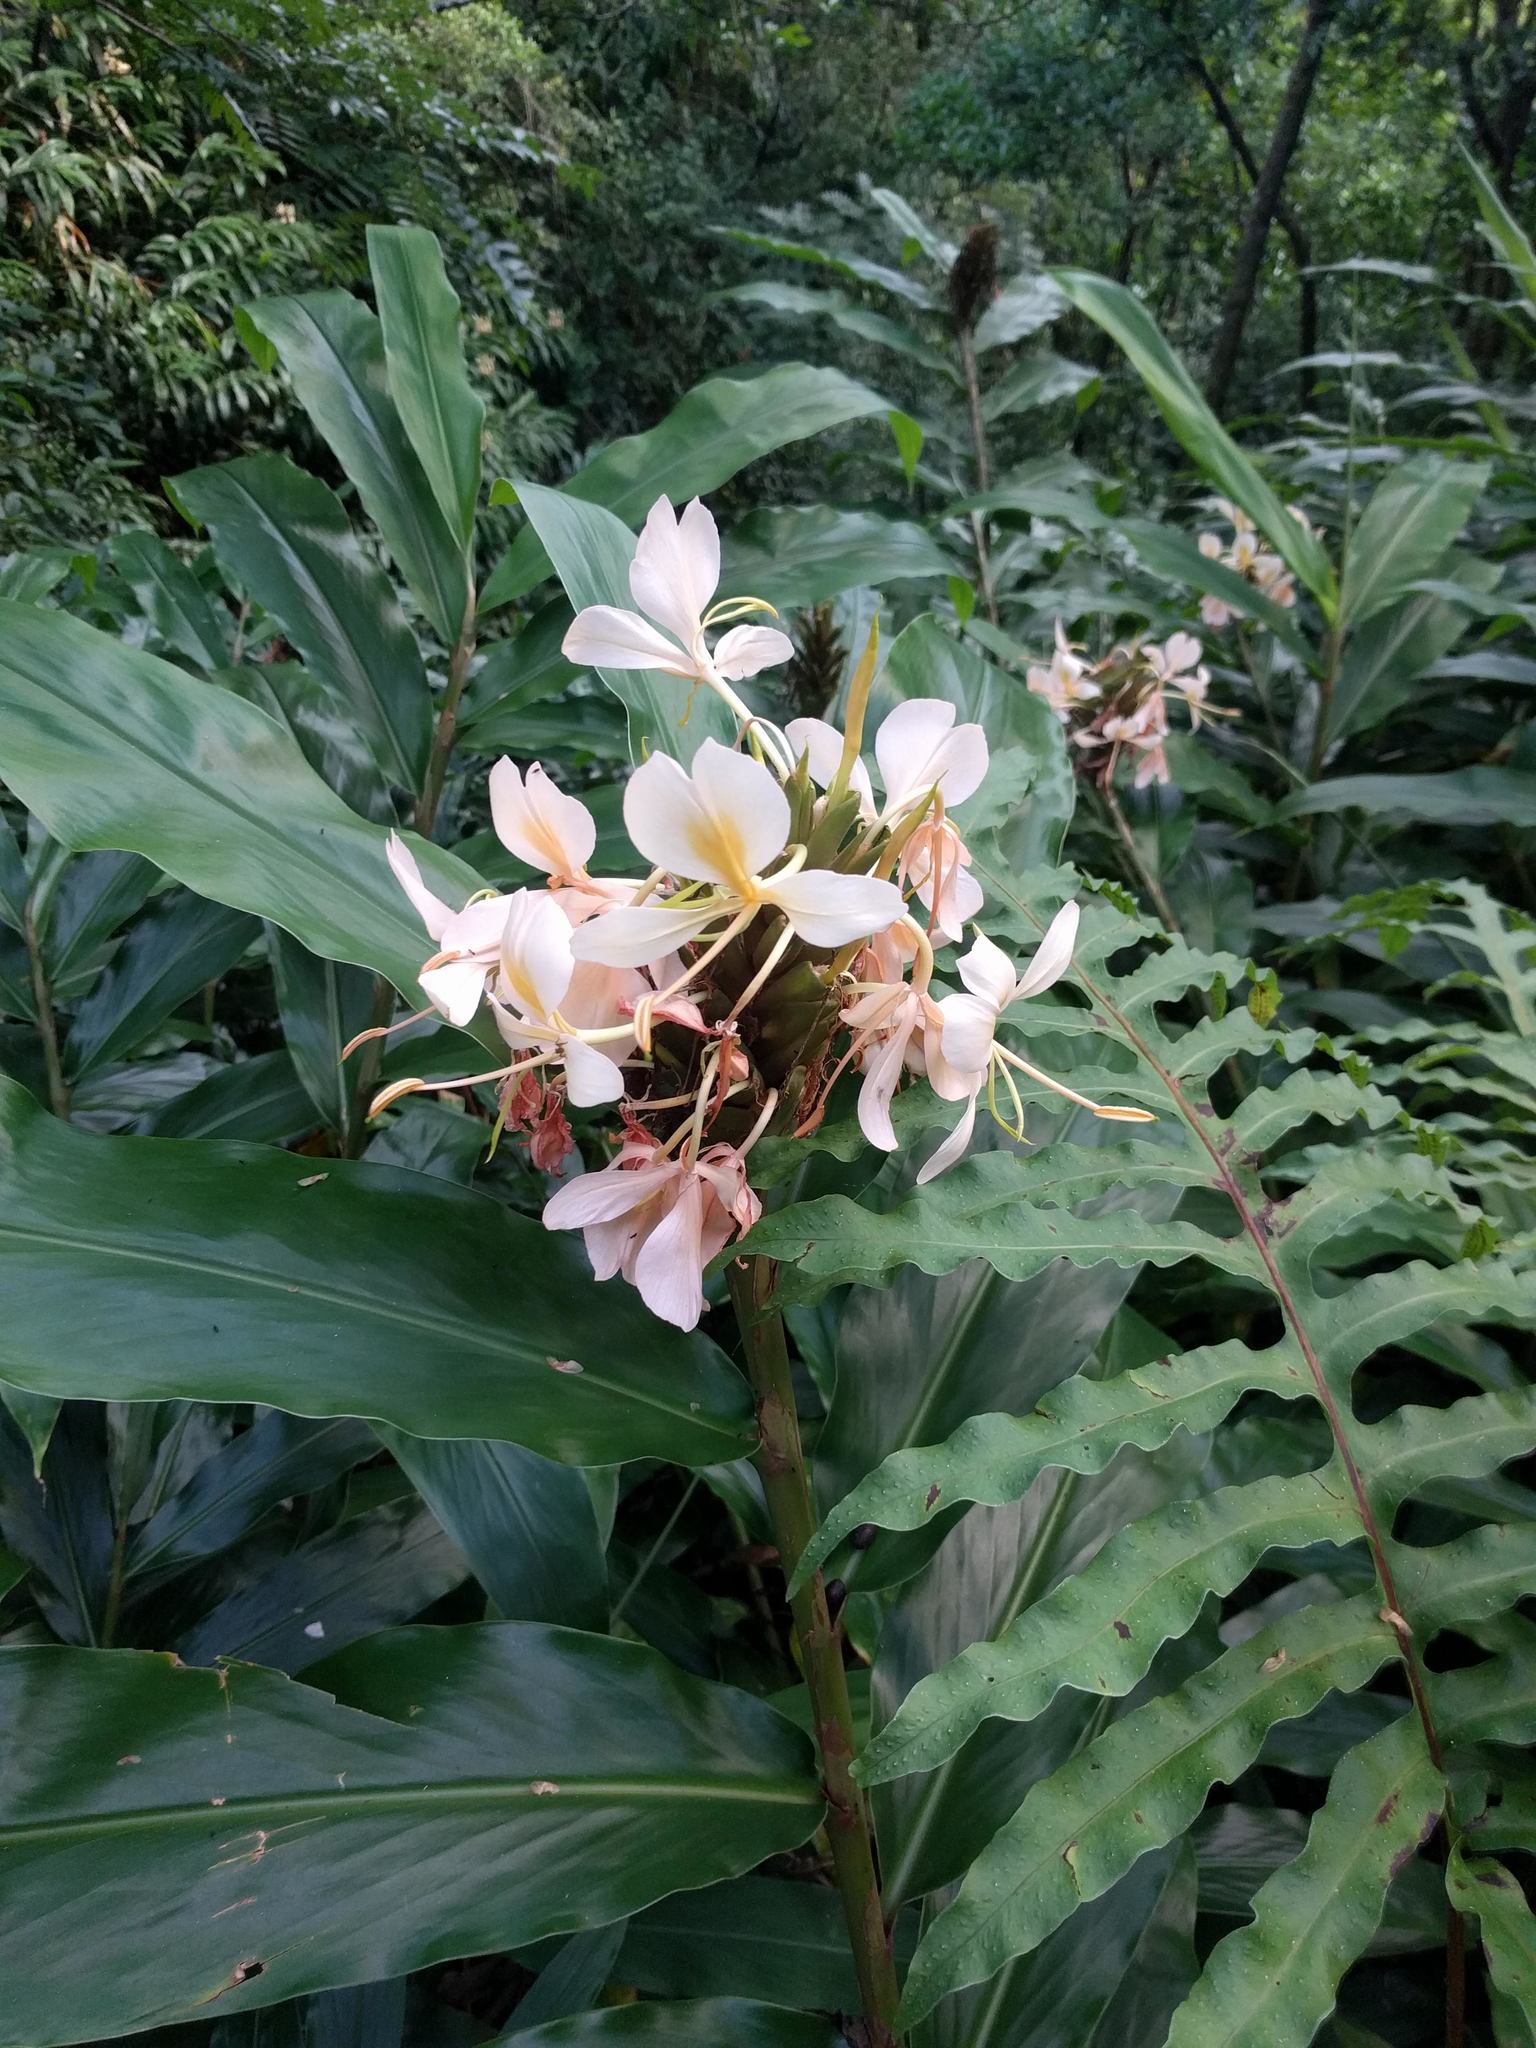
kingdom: Plantae
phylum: Tracheophyta
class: Liliopsida
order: Zingiberales
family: Zingiberaceae
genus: Hedychium
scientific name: Hedychium flavescens
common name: Yellow ginger
